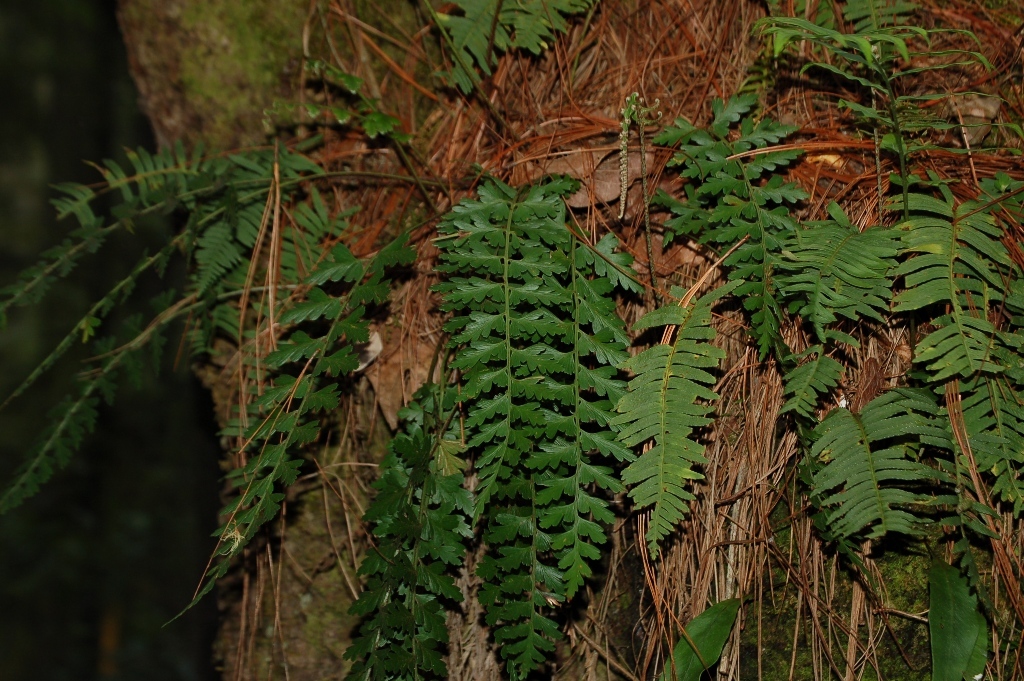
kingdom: Plantae
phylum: Tracheophyta
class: Polypodiopsida
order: Polypodiales
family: Aspleniaceae
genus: Asplenium
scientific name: Asplenium praemorsum
